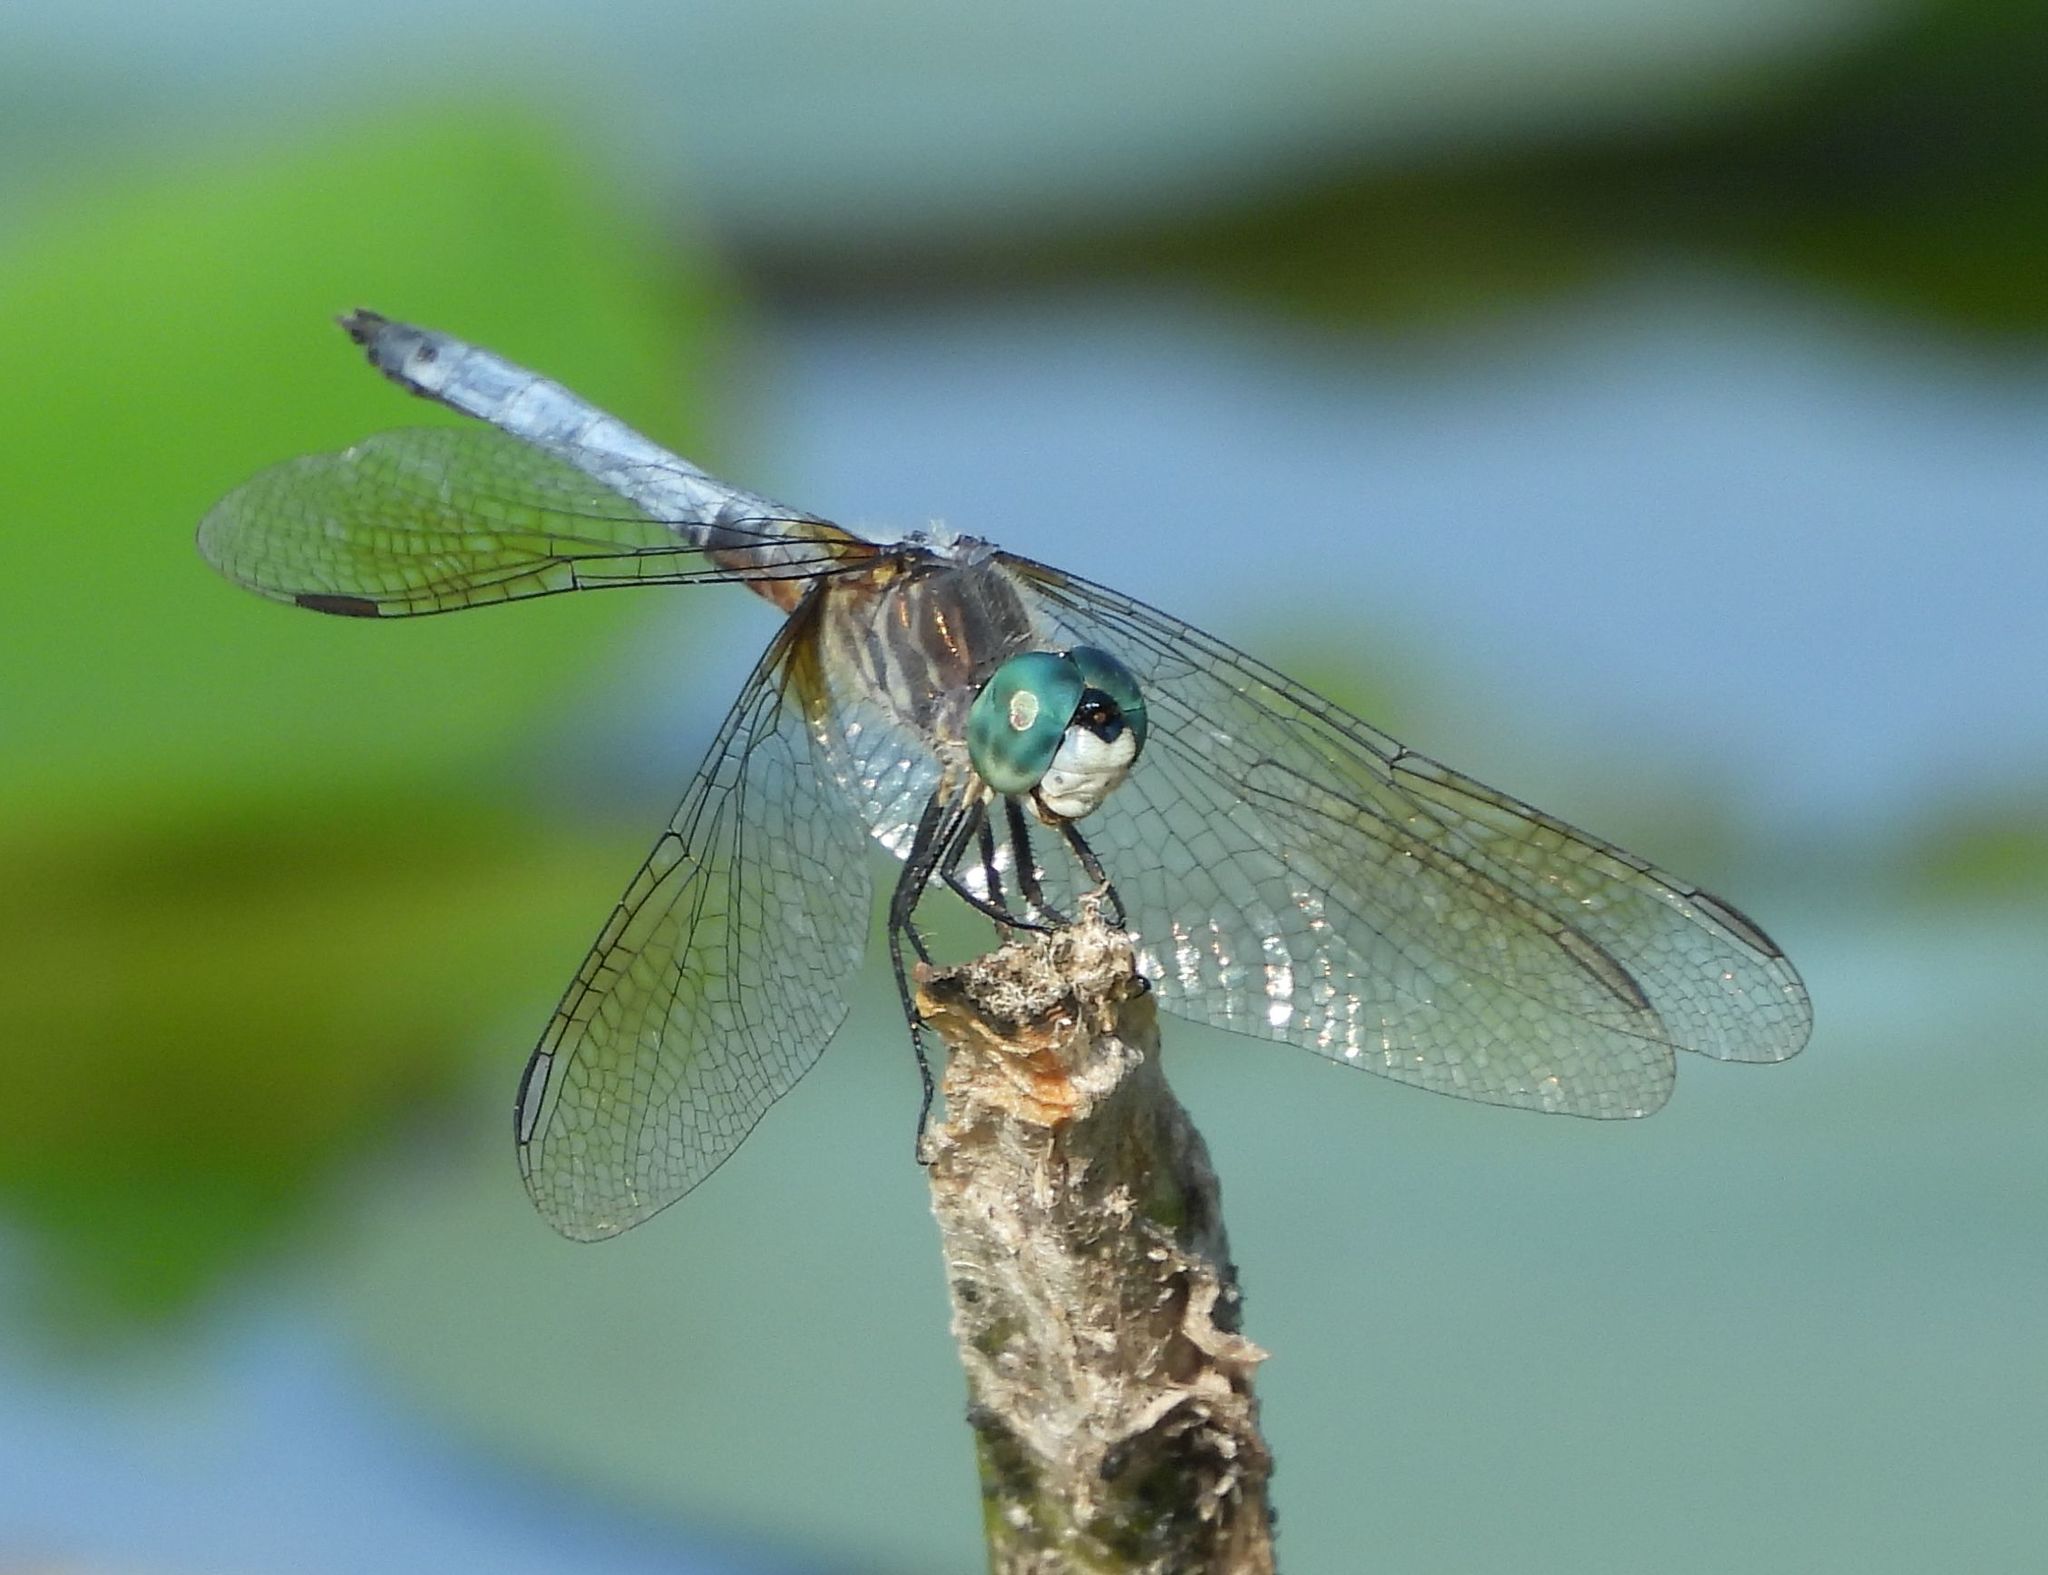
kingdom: Animalia
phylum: Arthropoda
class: Insecta
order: Odonata
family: Libellulidae
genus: Pachydiplax
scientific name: Pachydiplax longipennis
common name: Blue dasher
